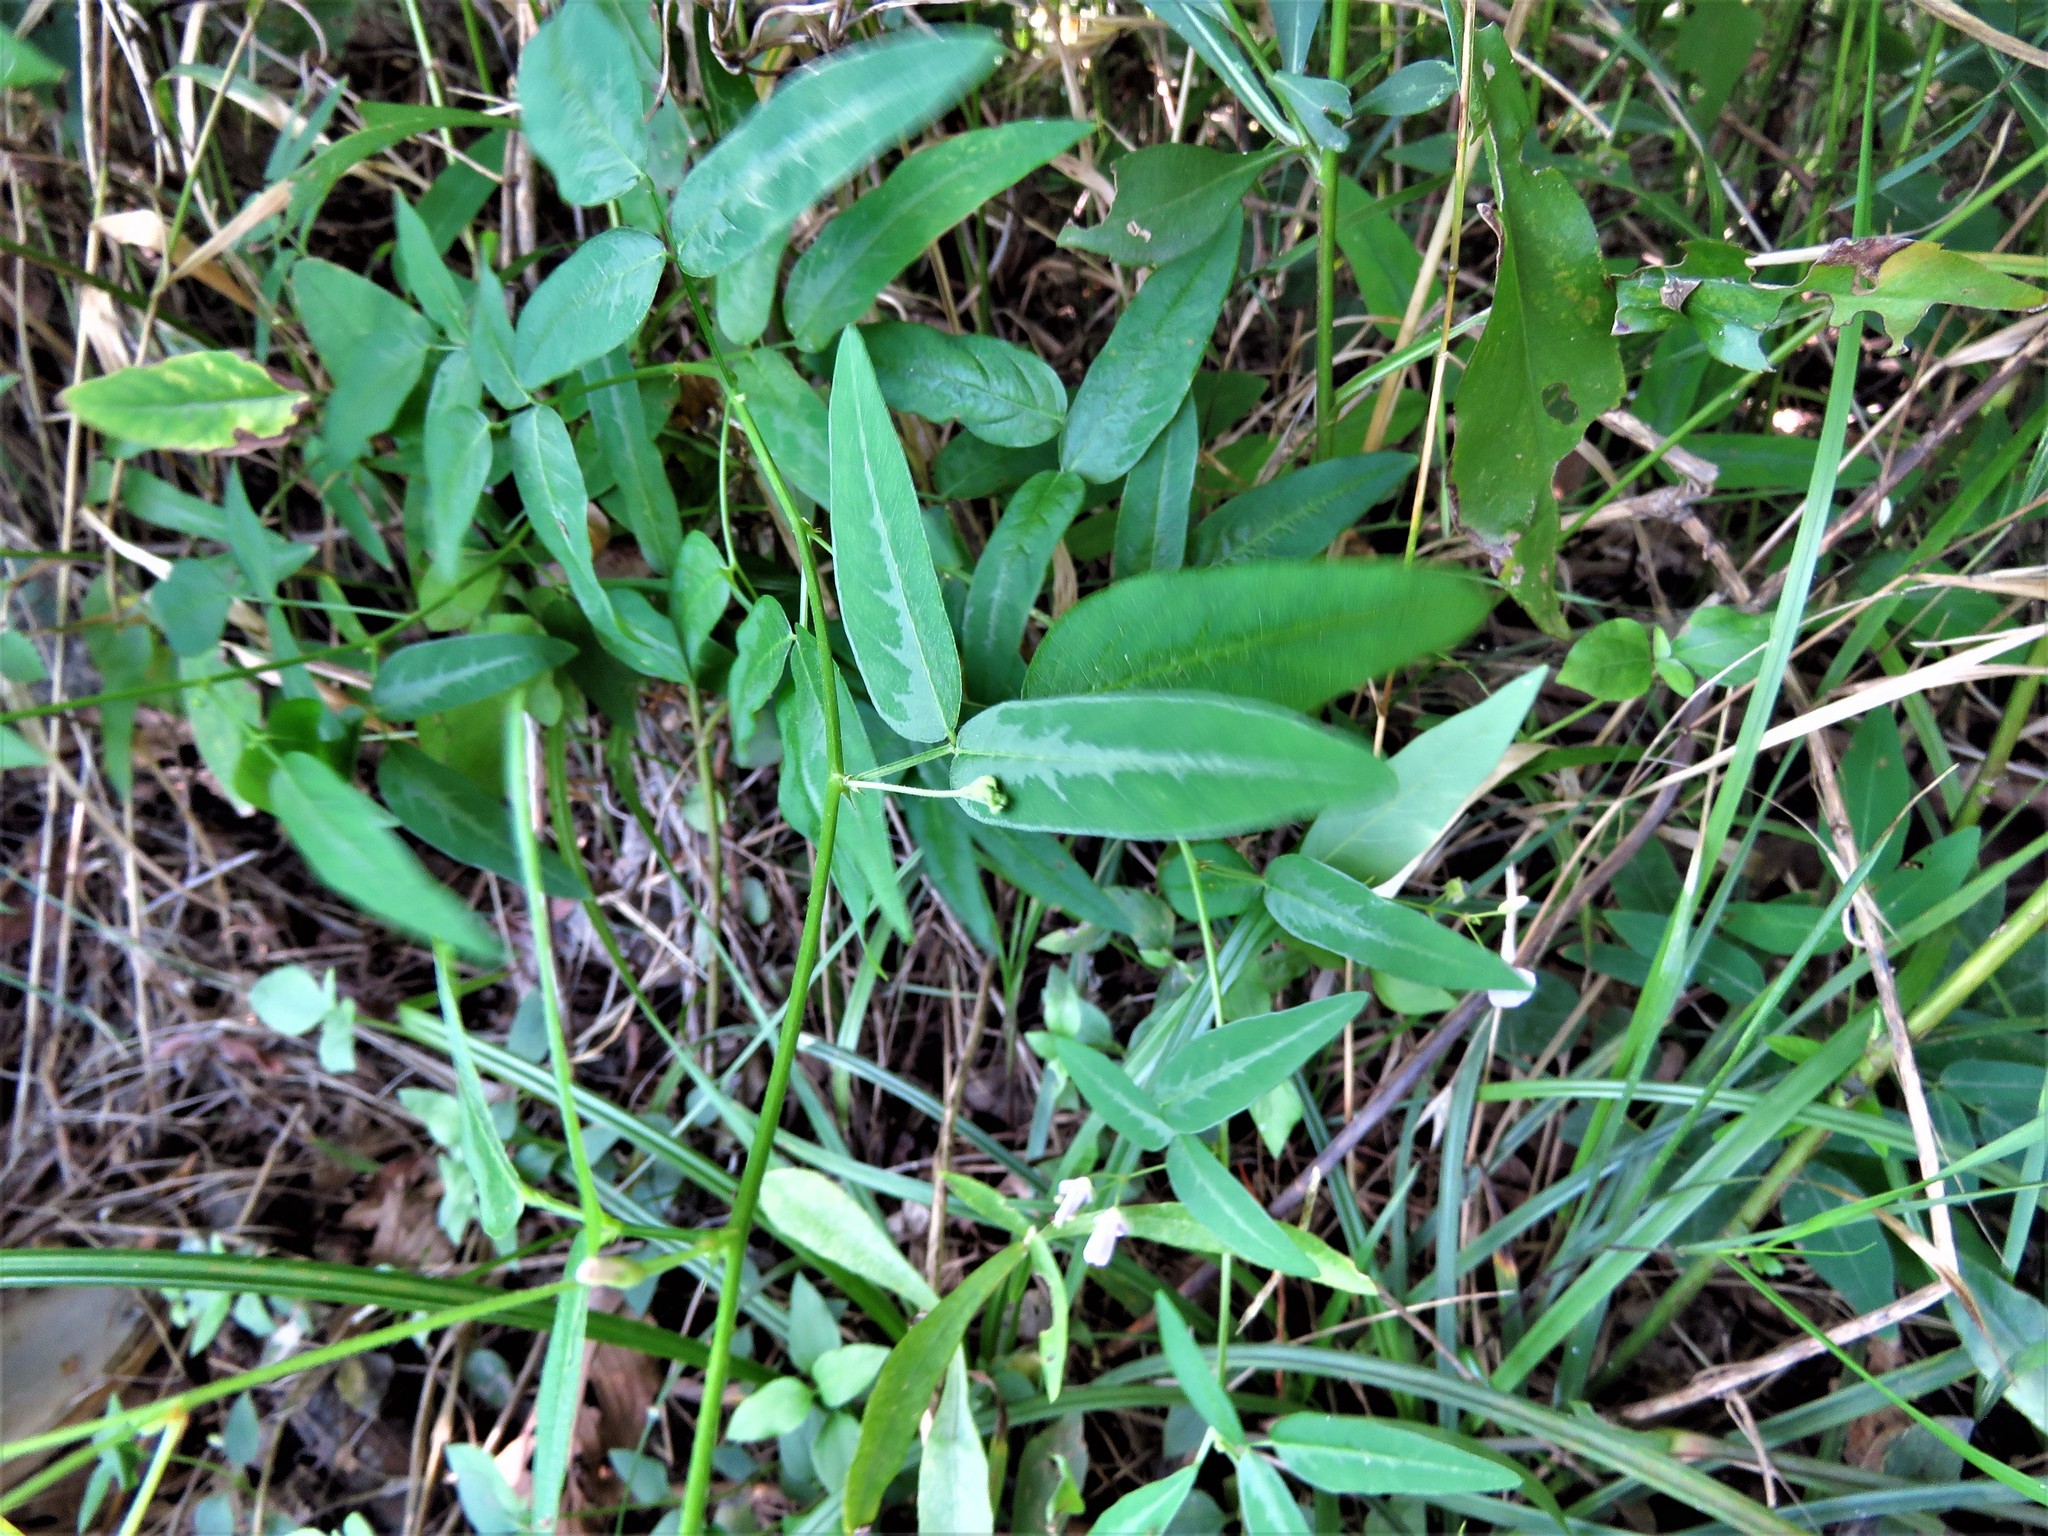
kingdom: Plantae
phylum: Tracheophyta
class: Magnoliopsida
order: Fabales
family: Fabaceae
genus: Desmodium
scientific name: Desmodium paniculatum
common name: Panicled tick-clover
